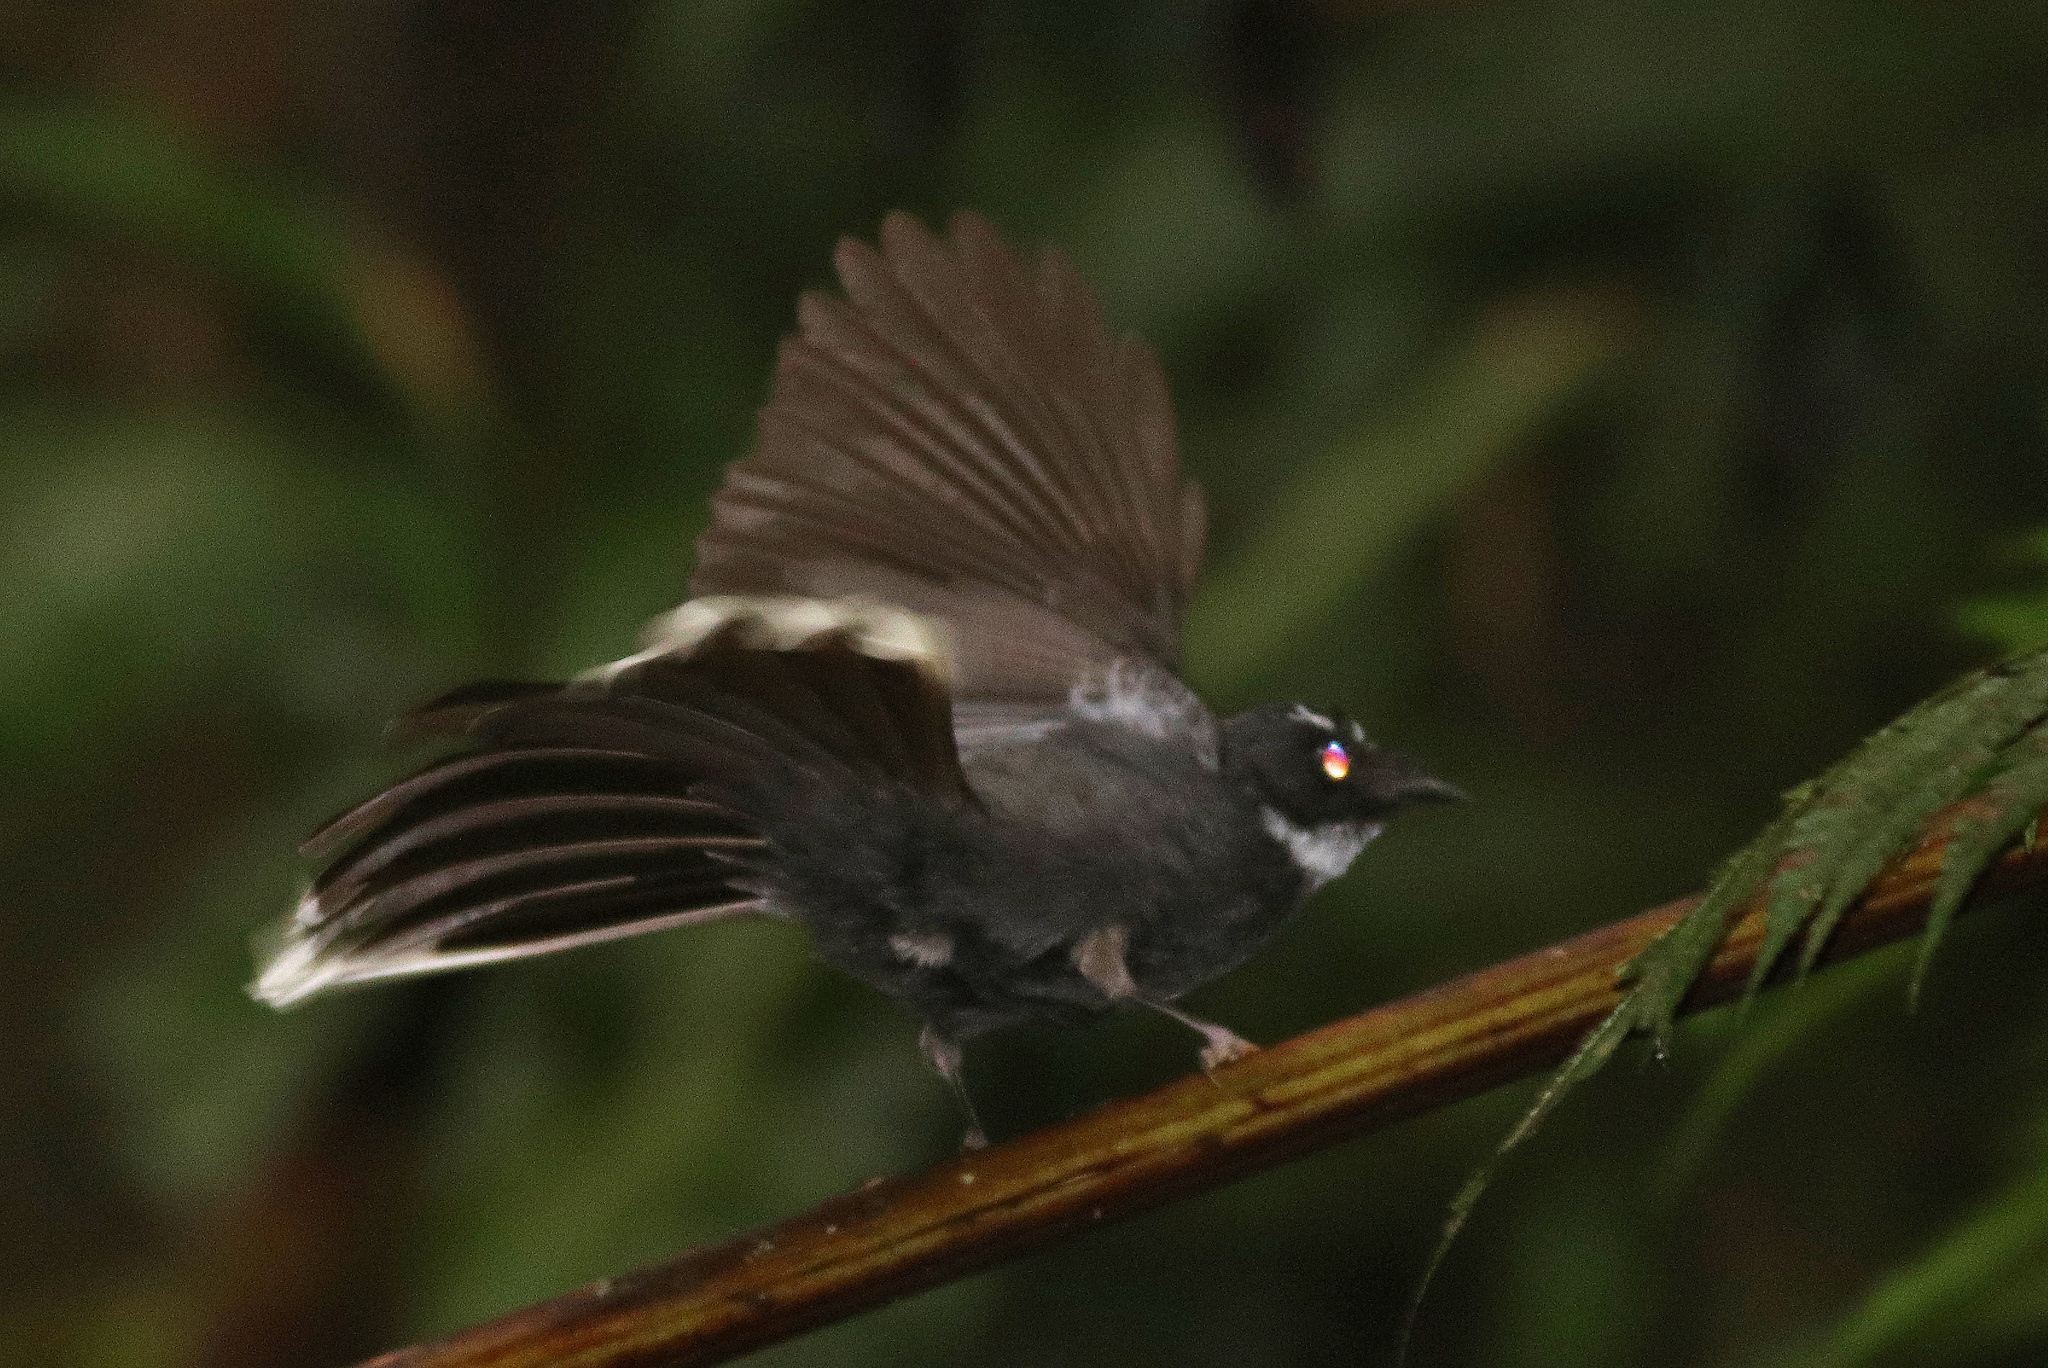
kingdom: Animalia
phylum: Chordata
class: Aves
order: Passeriformes
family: Rhipiduridae
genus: Rhipidura
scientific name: Rhipidura albicollis
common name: White-throated fantail
